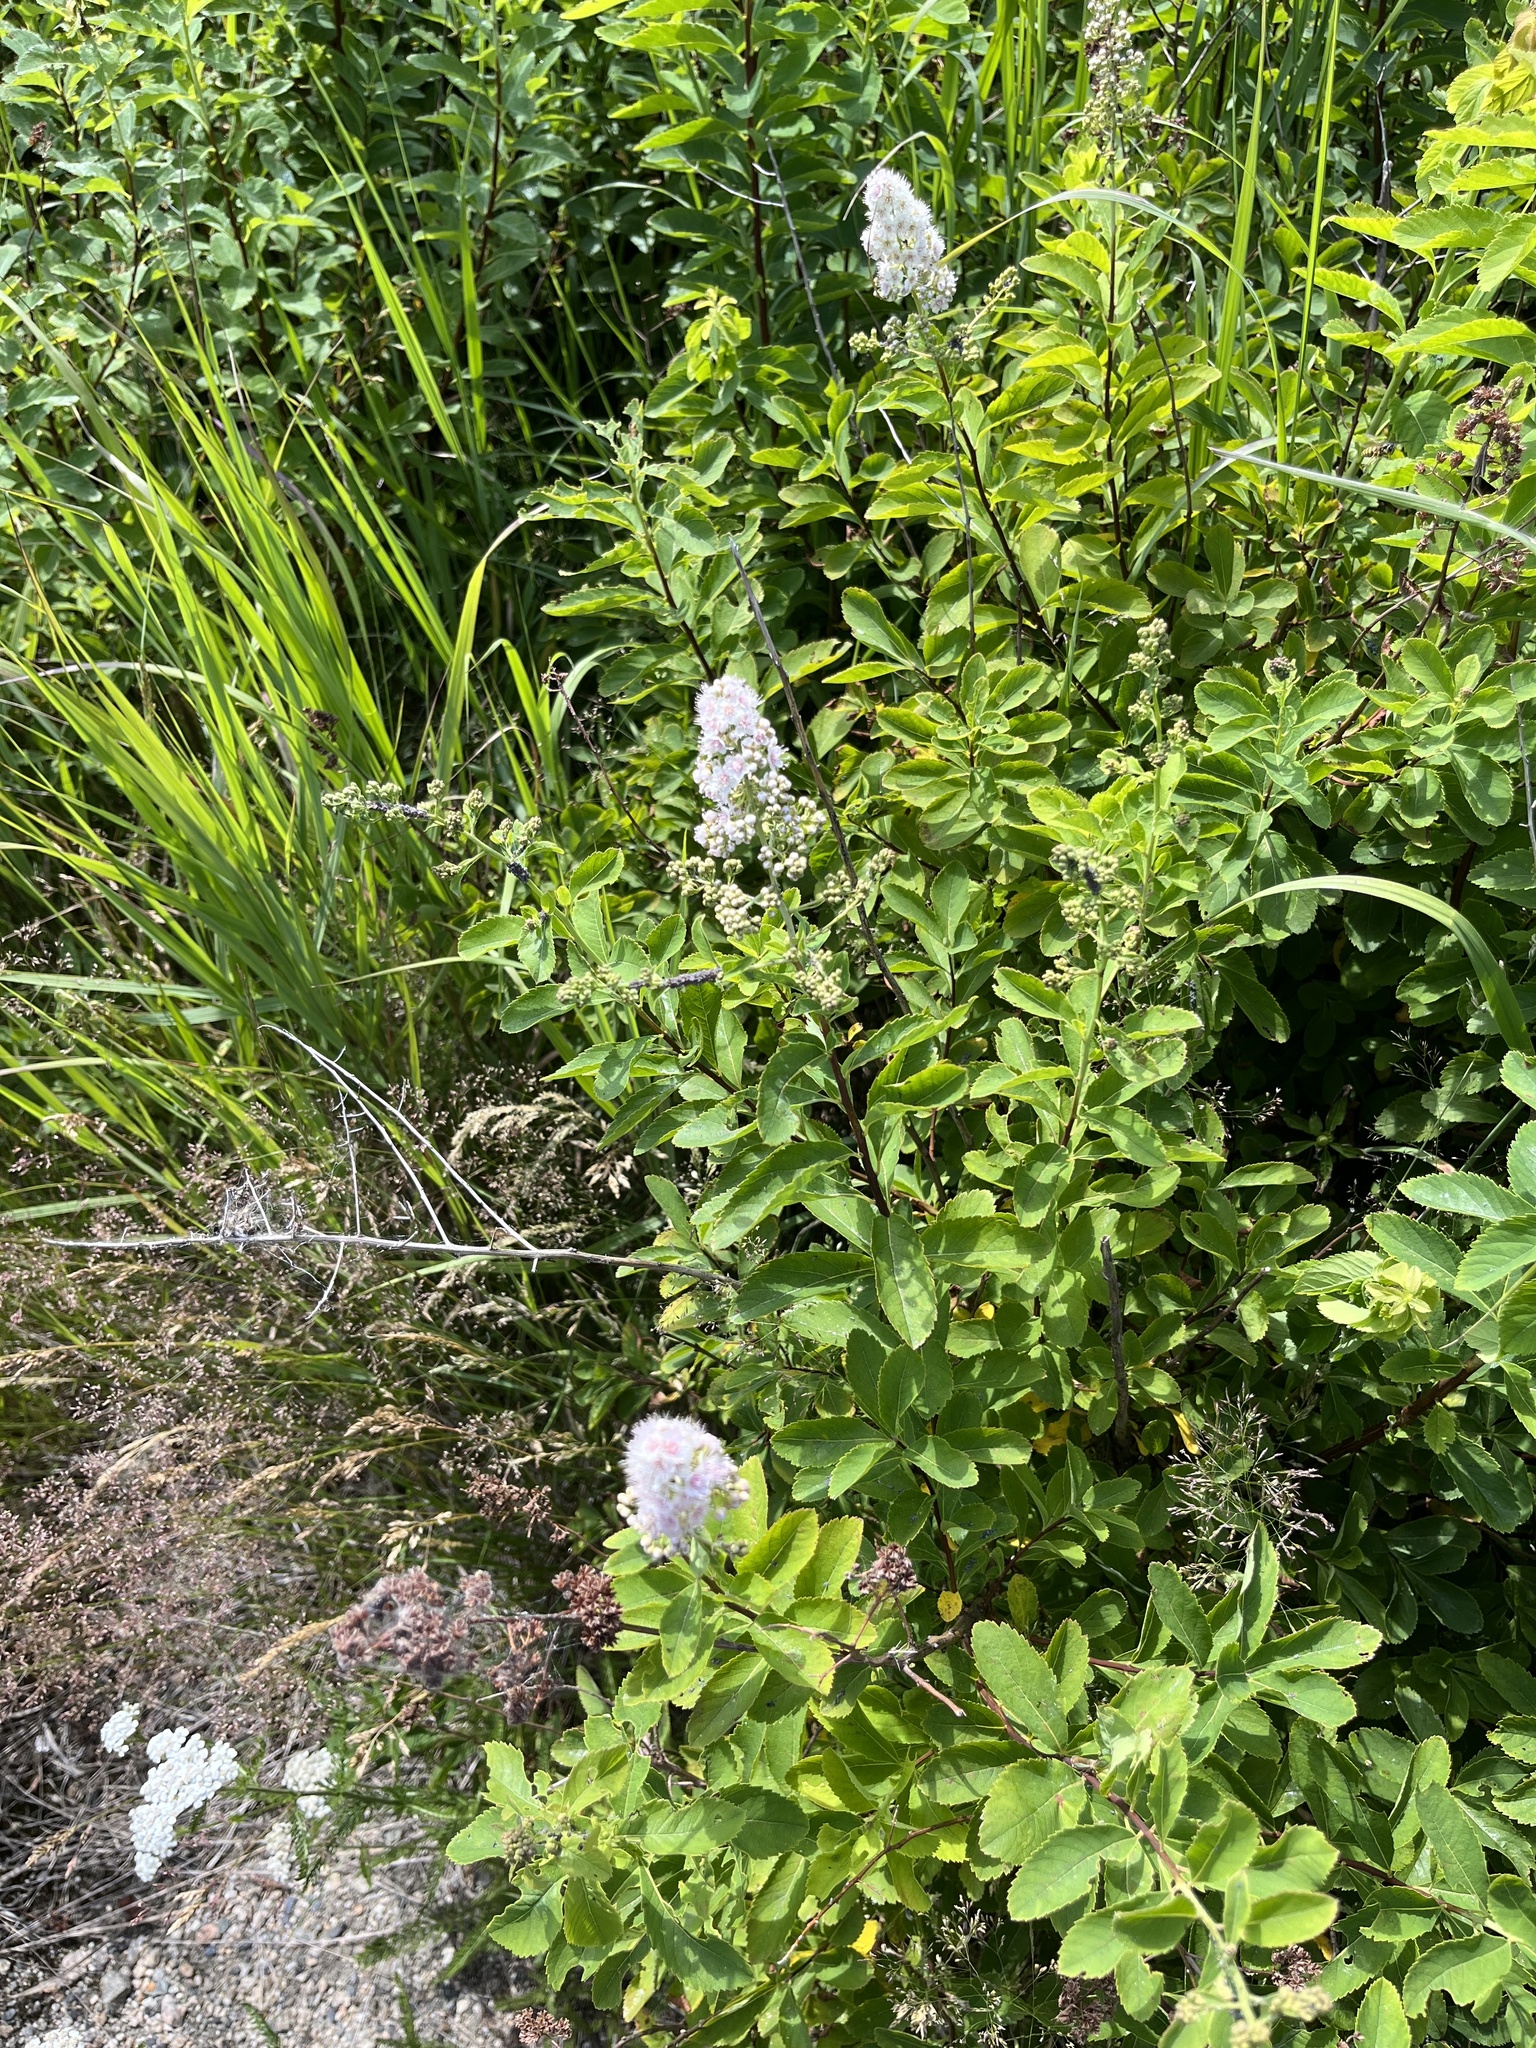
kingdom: Plantae
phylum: Tracheophyta
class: Magnoliopsida
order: Rosales
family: Rosaceae
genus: Spiraea
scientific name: Spiraea alba
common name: Pale bridewort
